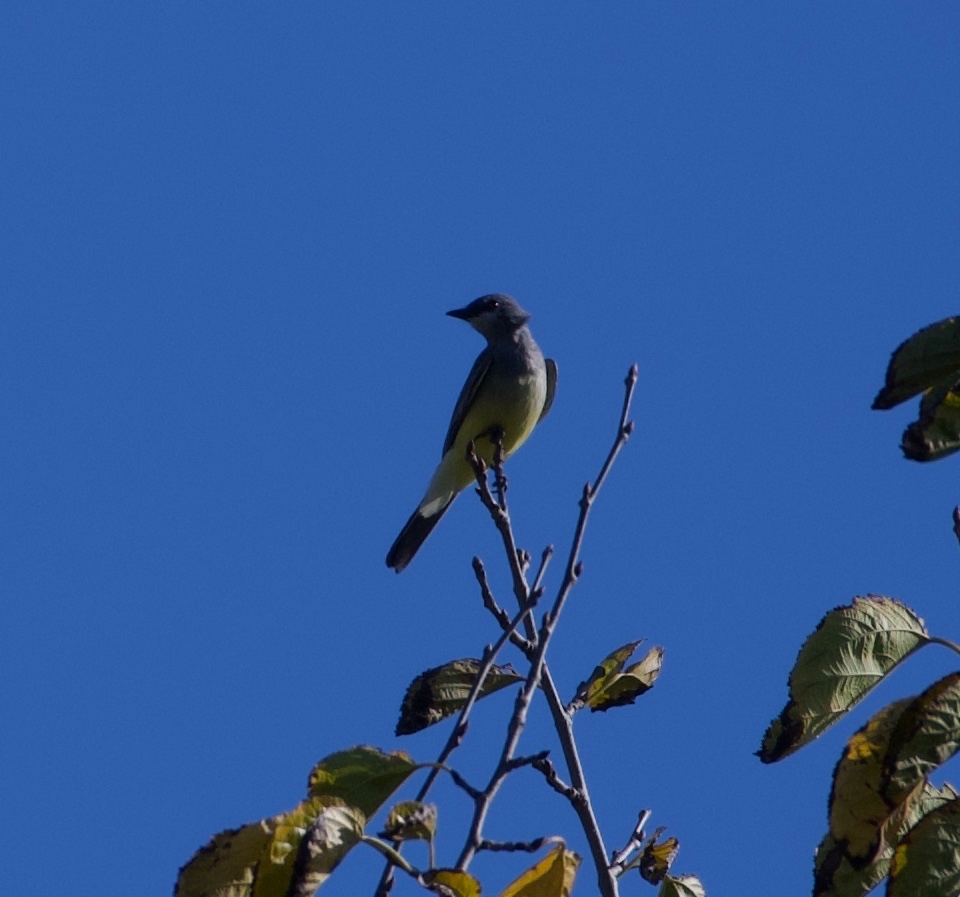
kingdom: Animalia
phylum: Chordata
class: Aves
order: Passeriformes
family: Tyrannidae
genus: Tyrannus
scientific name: Tyrannus vociferans
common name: Cassin's kingbird
